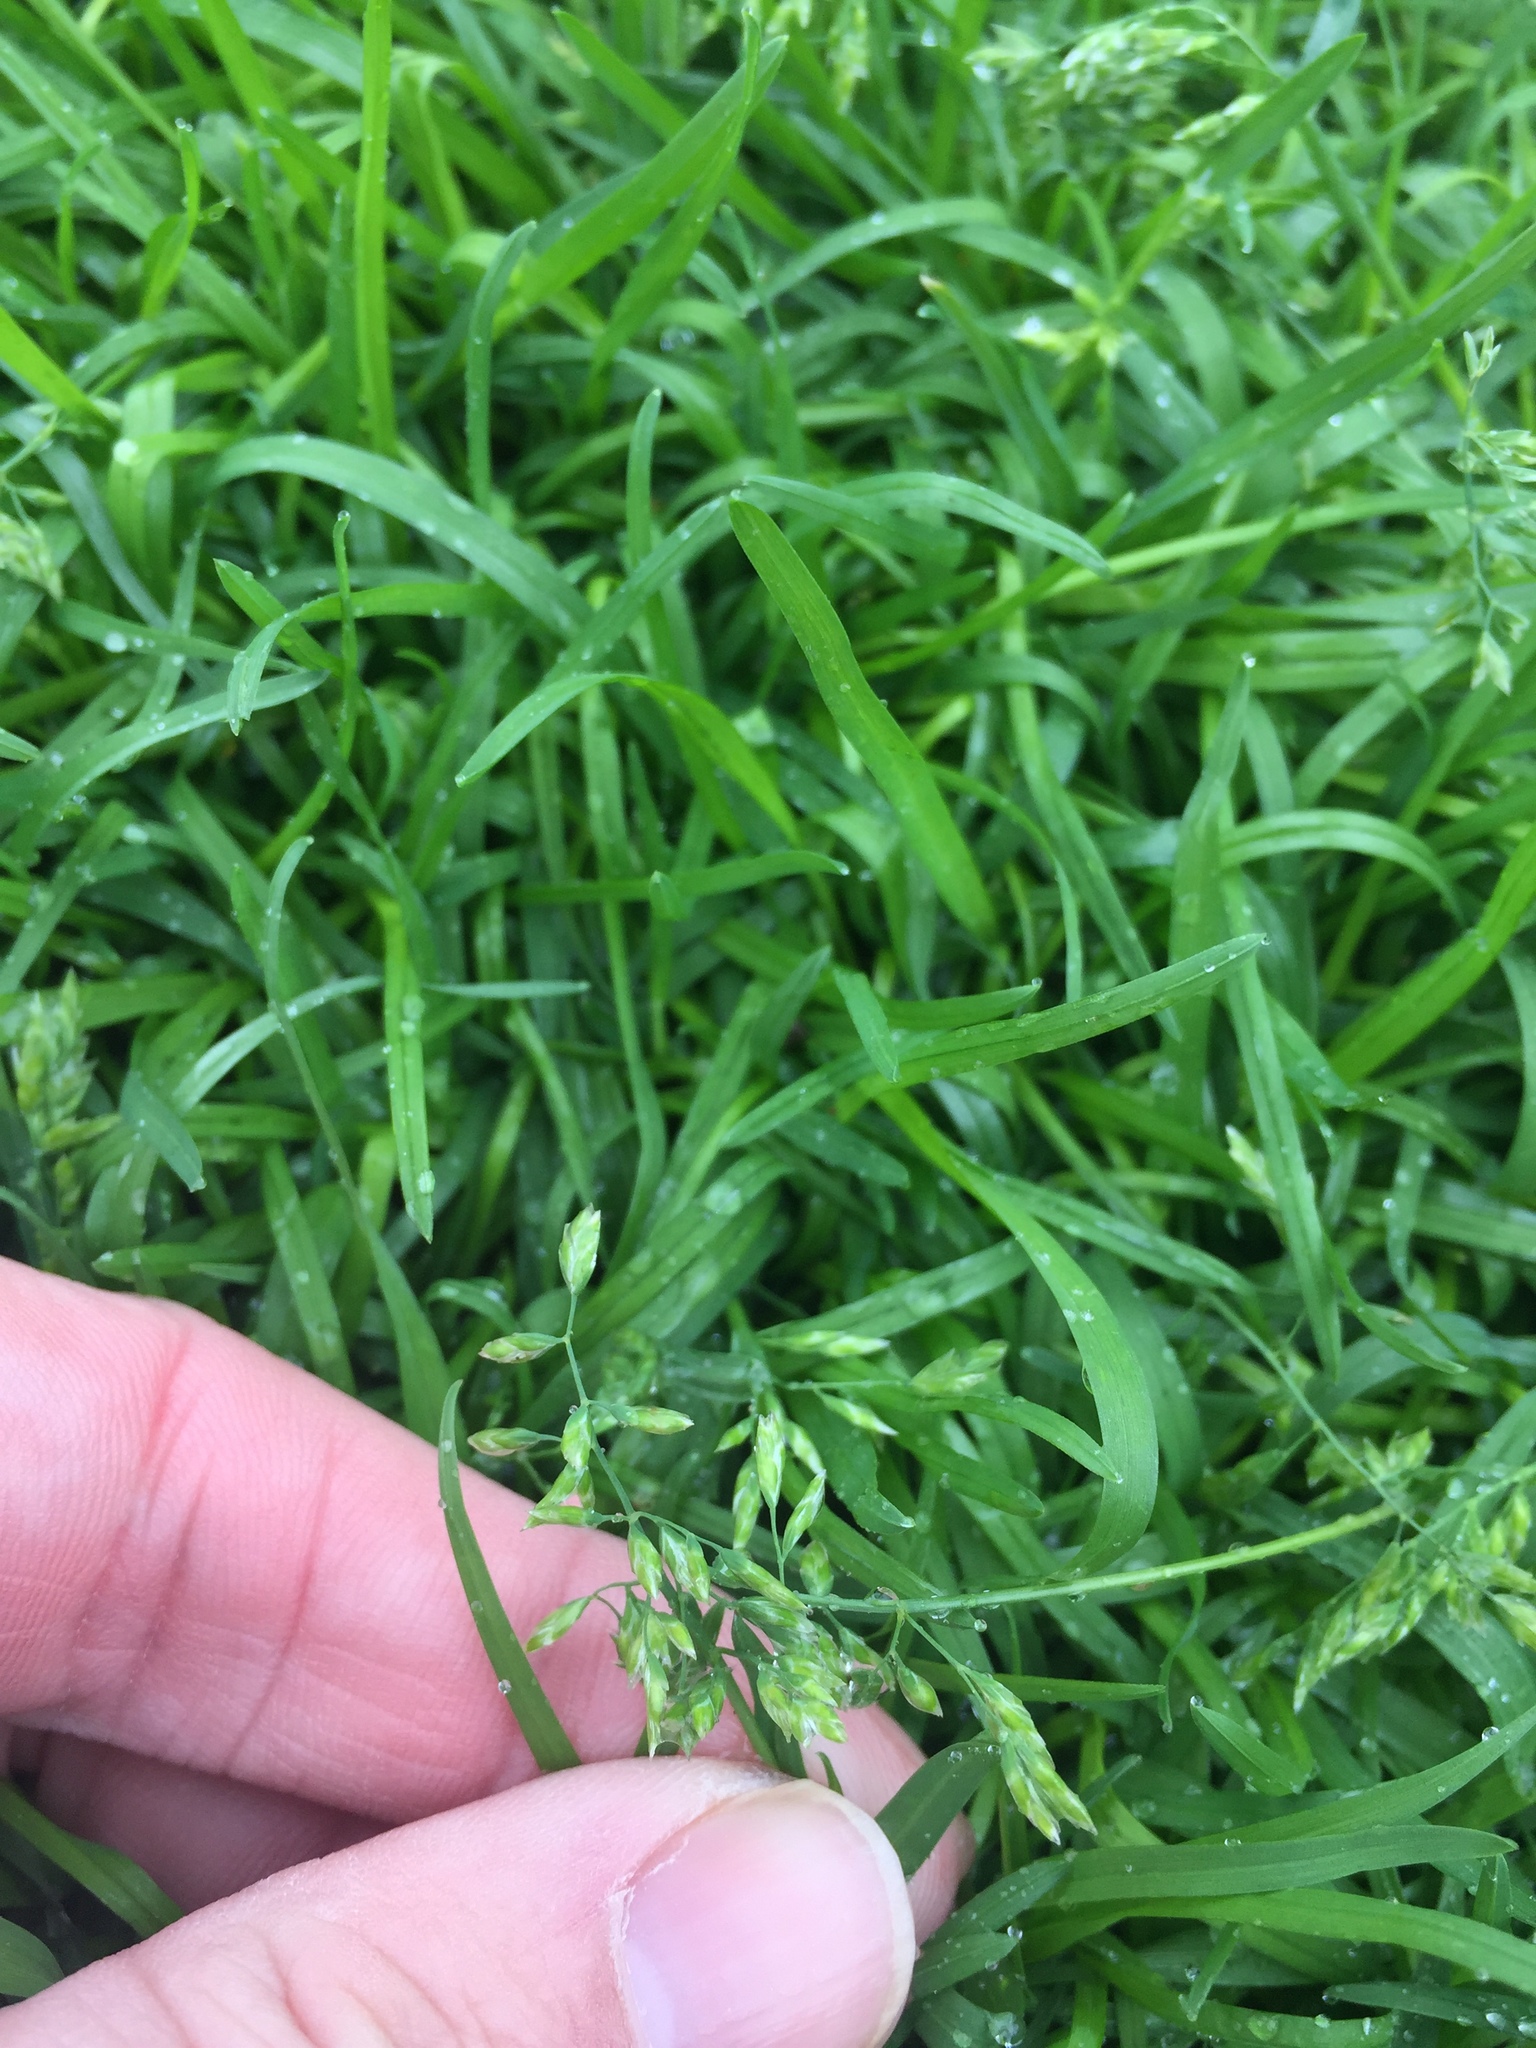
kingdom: Plantae
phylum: Tracheophyta
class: Liliopsida
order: Poales
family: Poaceae
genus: Poa
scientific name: Poa annua
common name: Annual bluegrass
